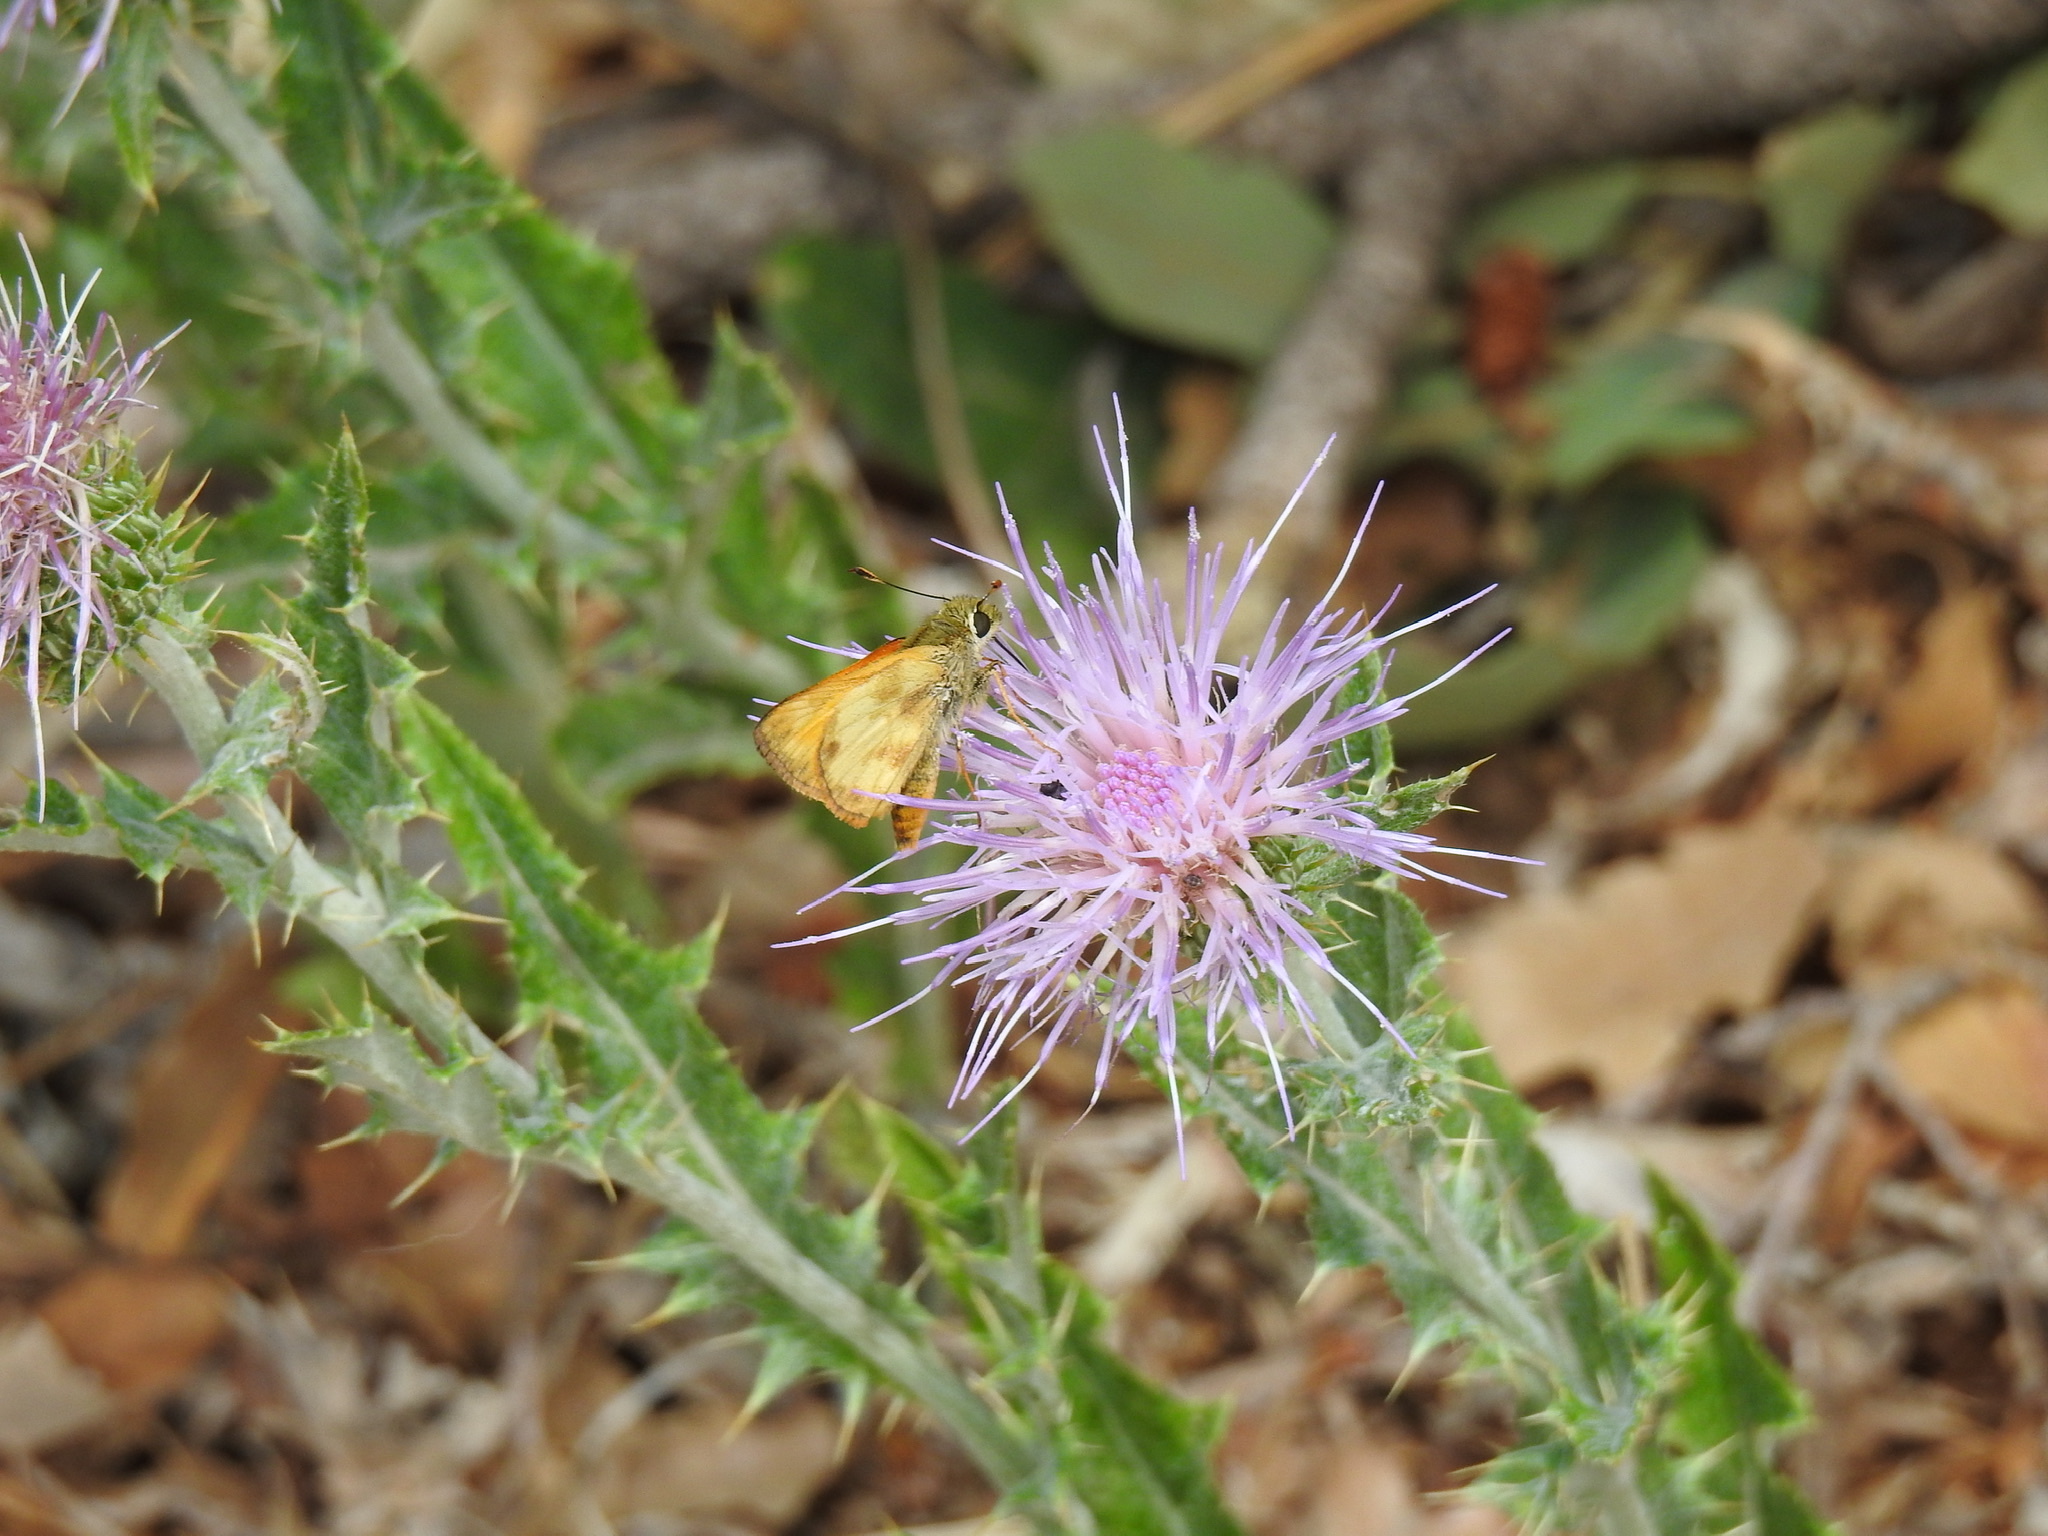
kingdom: Animalia
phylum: Arthropoda
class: Insecta
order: Lepidoptera
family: Hesperiidae
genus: Lon
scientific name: Lon taxiles
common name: Taxiles skipper
